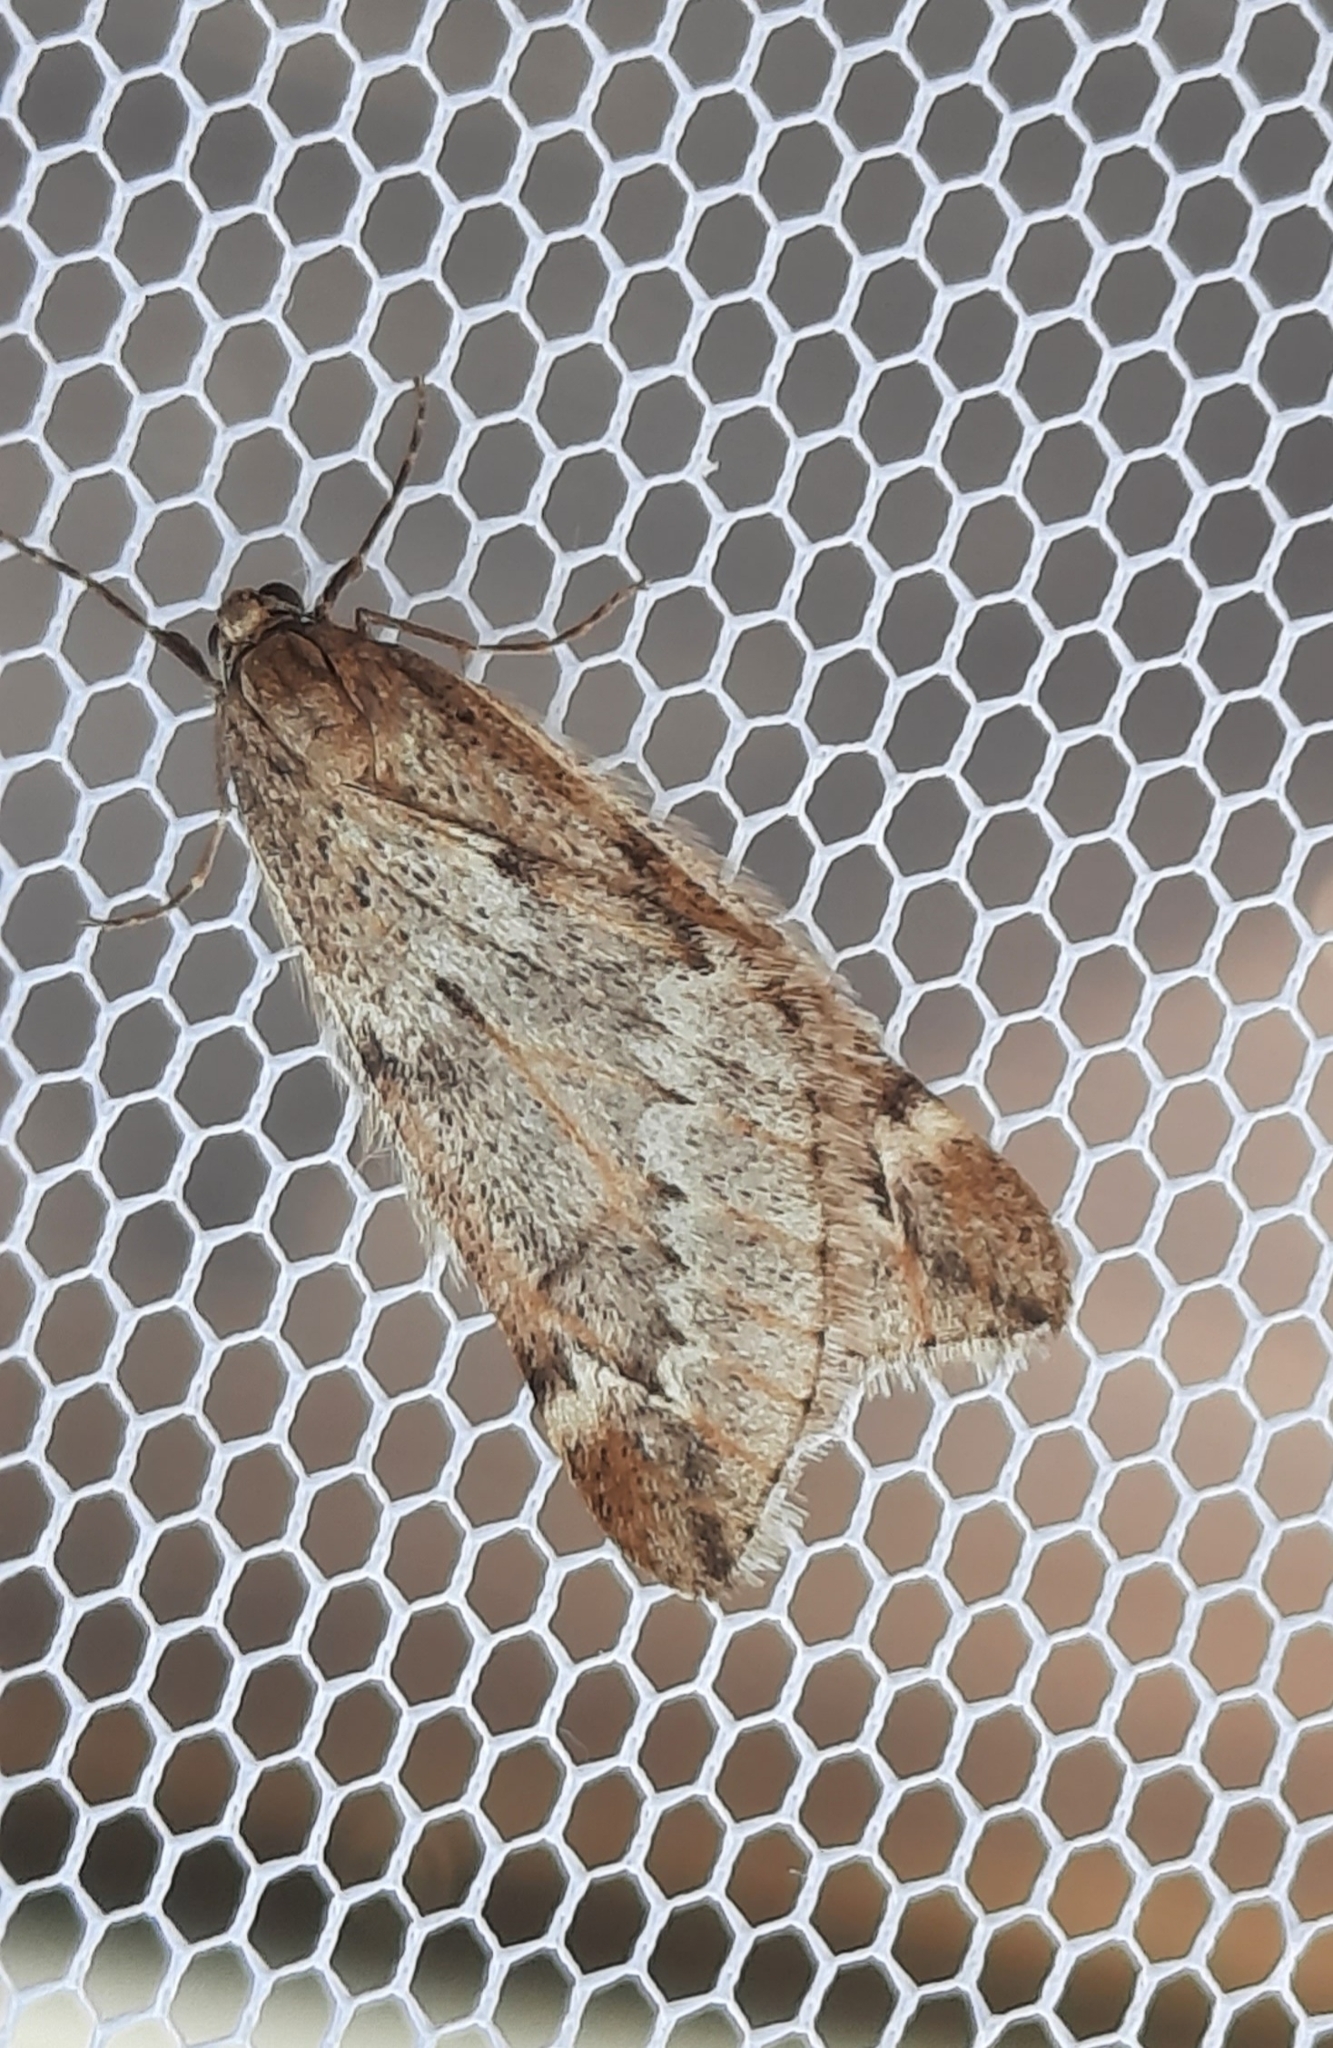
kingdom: Animalia
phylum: Arthropoda
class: Insecta
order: Lepidoptera
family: Geometridae
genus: Alsophila
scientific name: Alsophila aescularia
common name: March moth
